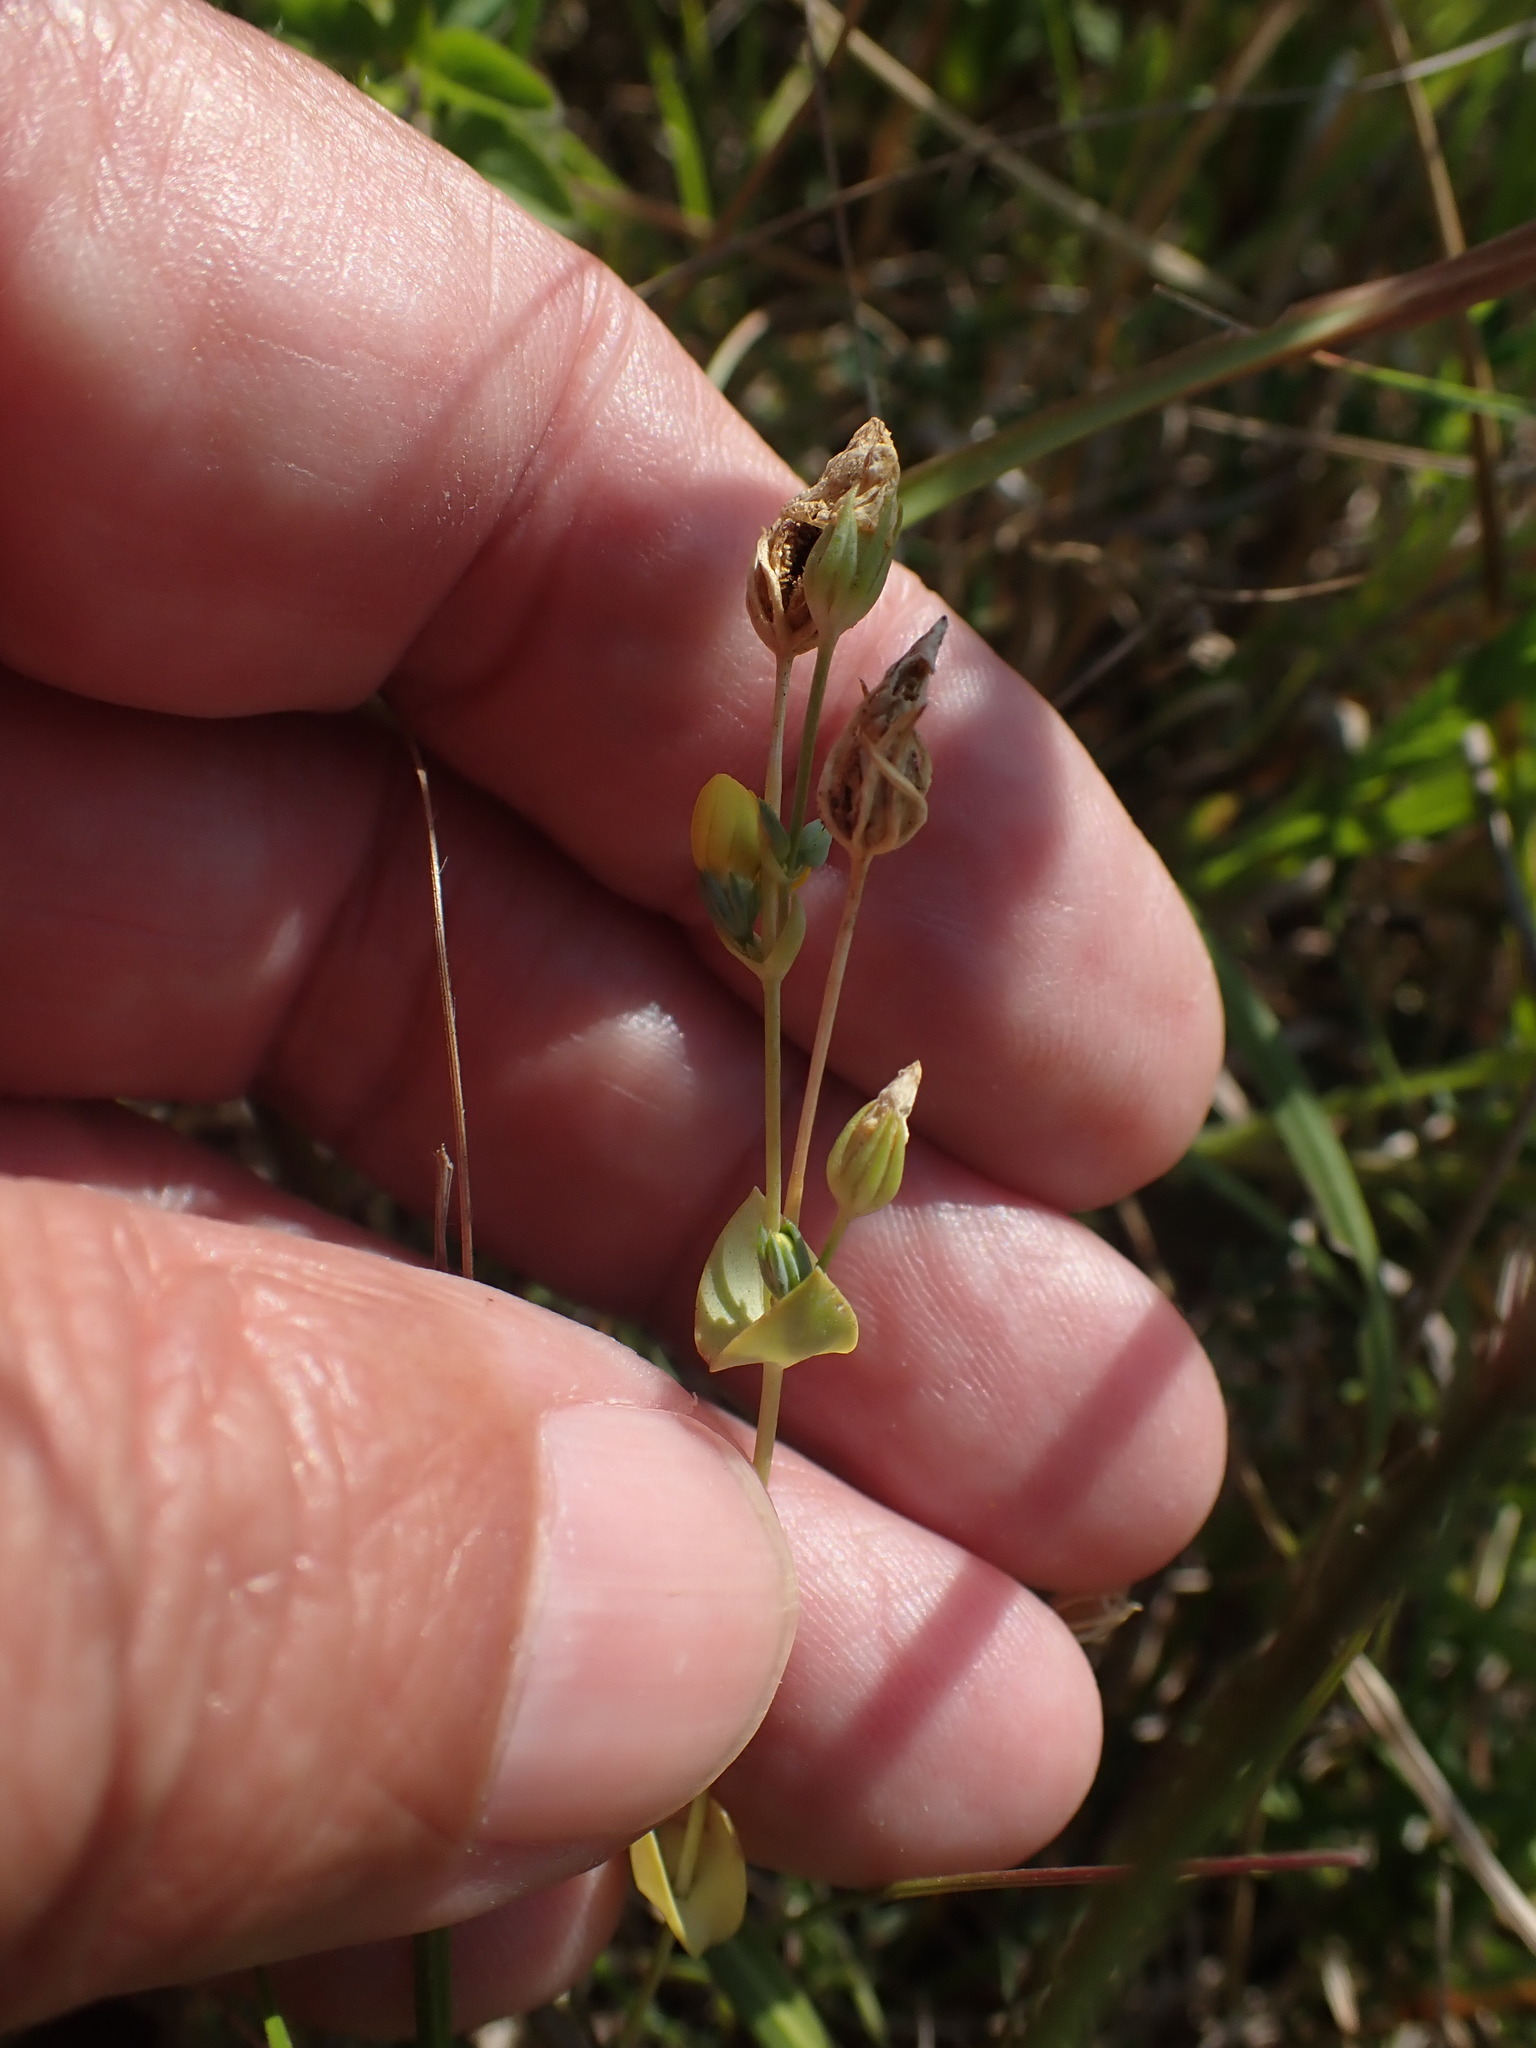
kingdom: Plantae
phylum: Tracheophyta
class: Magnoliopsida
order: Gentianales
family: Gentianaceae
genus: Blackstonia
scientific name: Blackstonia perfoliata
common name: Yellow-wort
